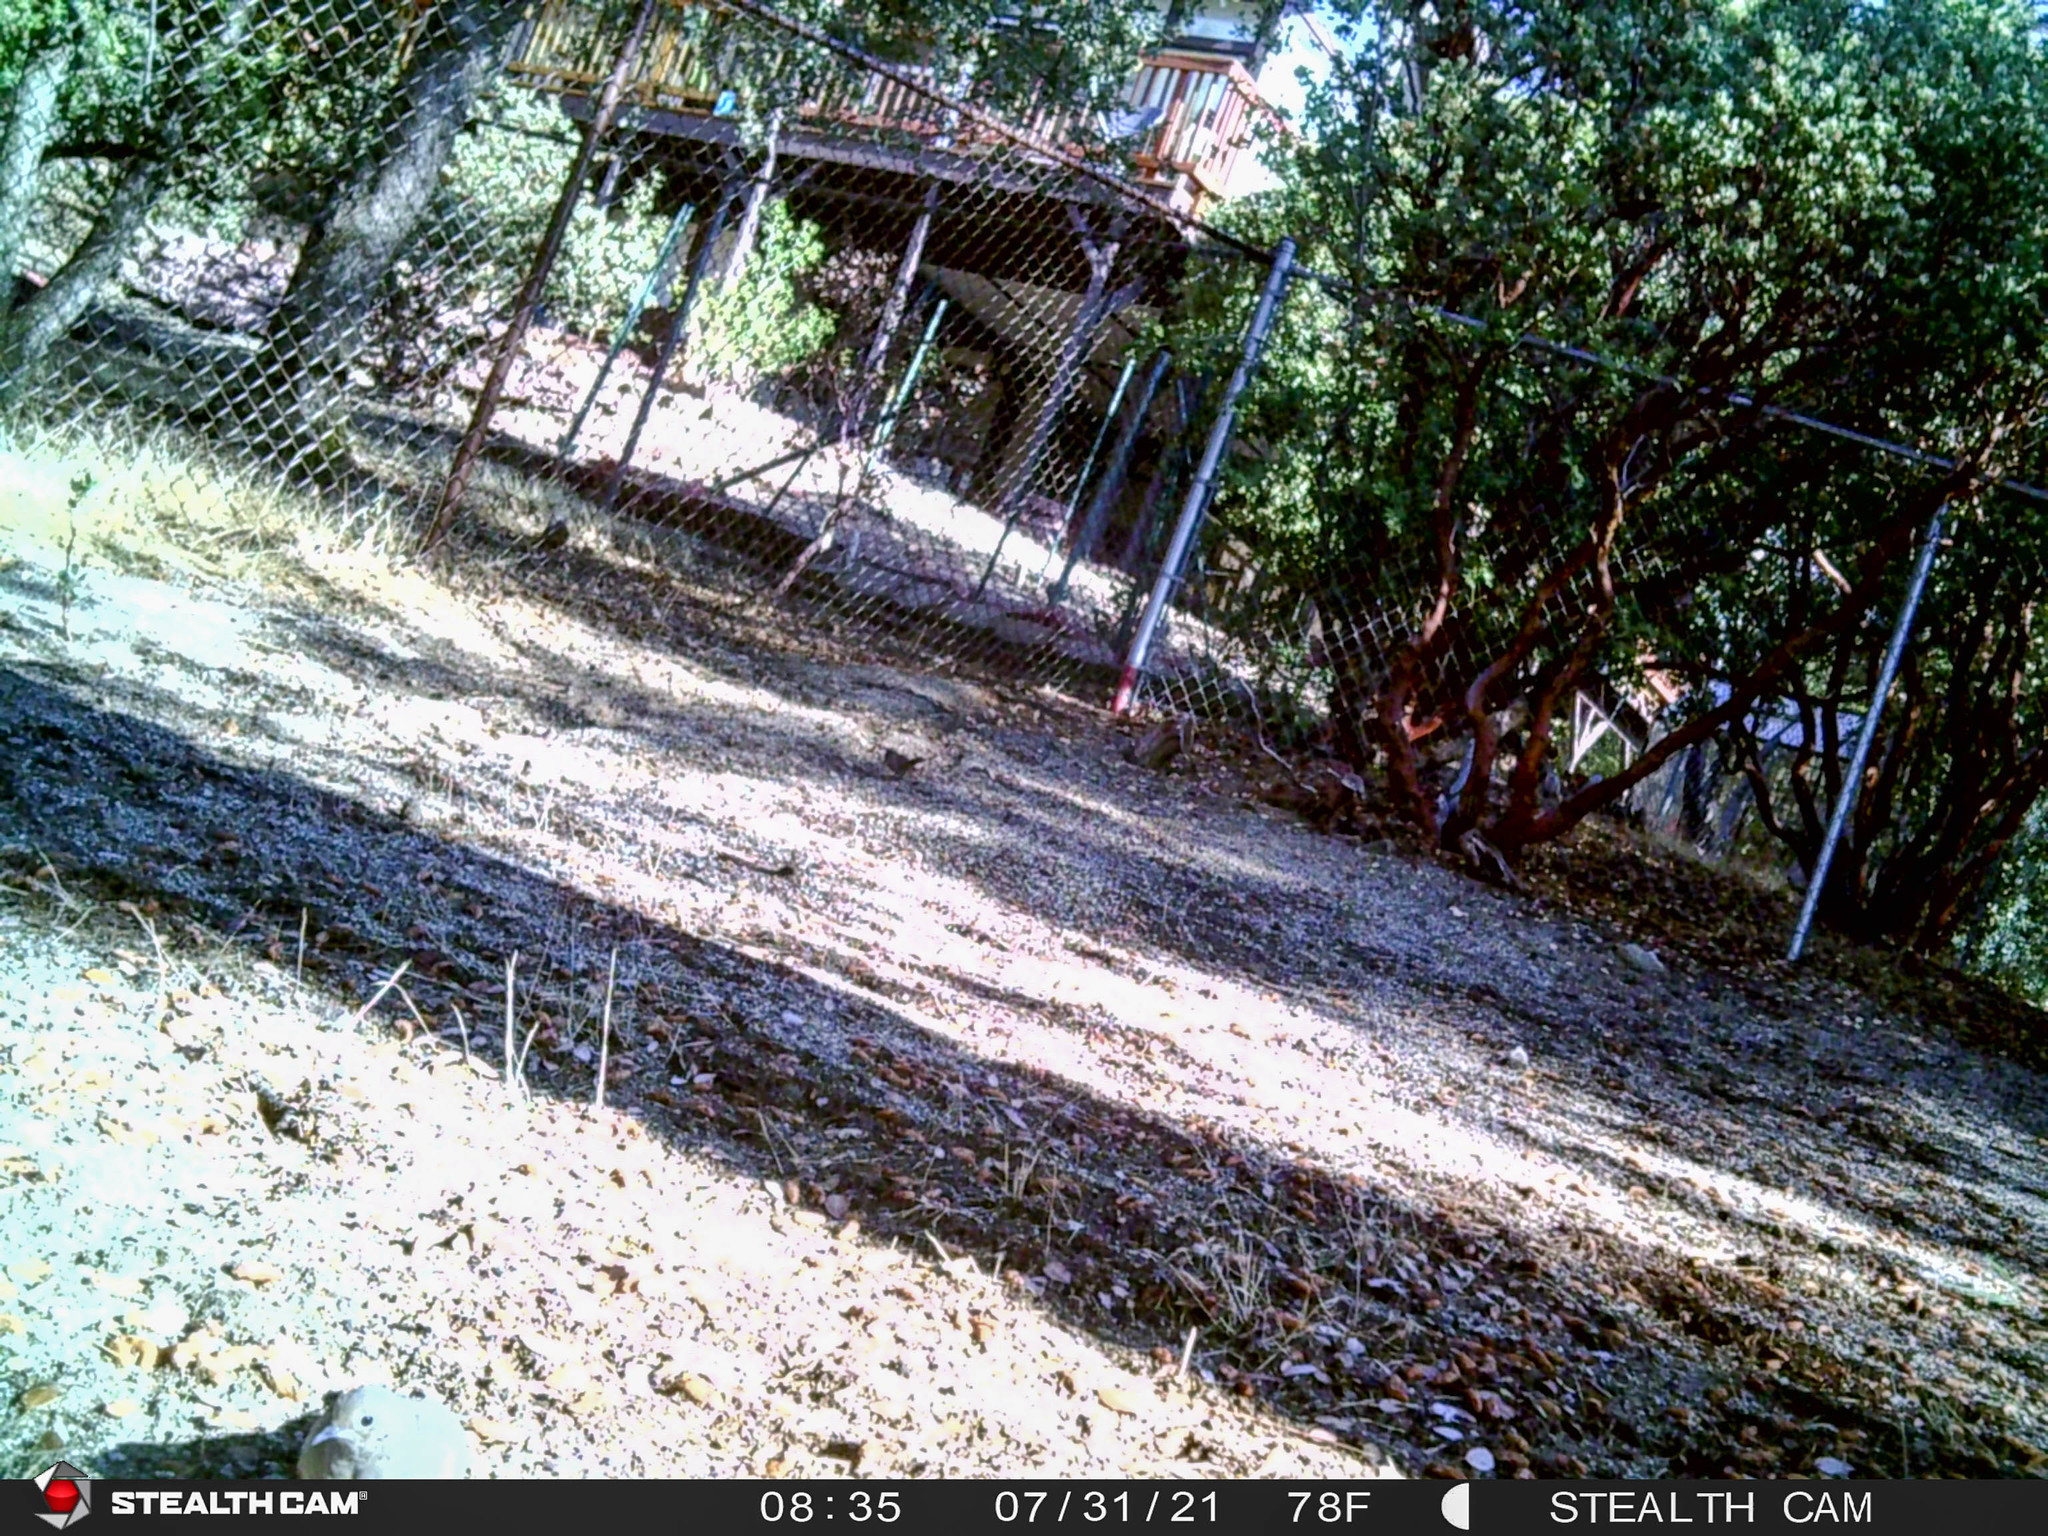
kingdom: Animalia
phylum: Chordata
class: Aves
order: Columbiformes
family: Columbidae
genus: Zenaida
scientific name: Zenaida macroura
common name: Mourning dove
